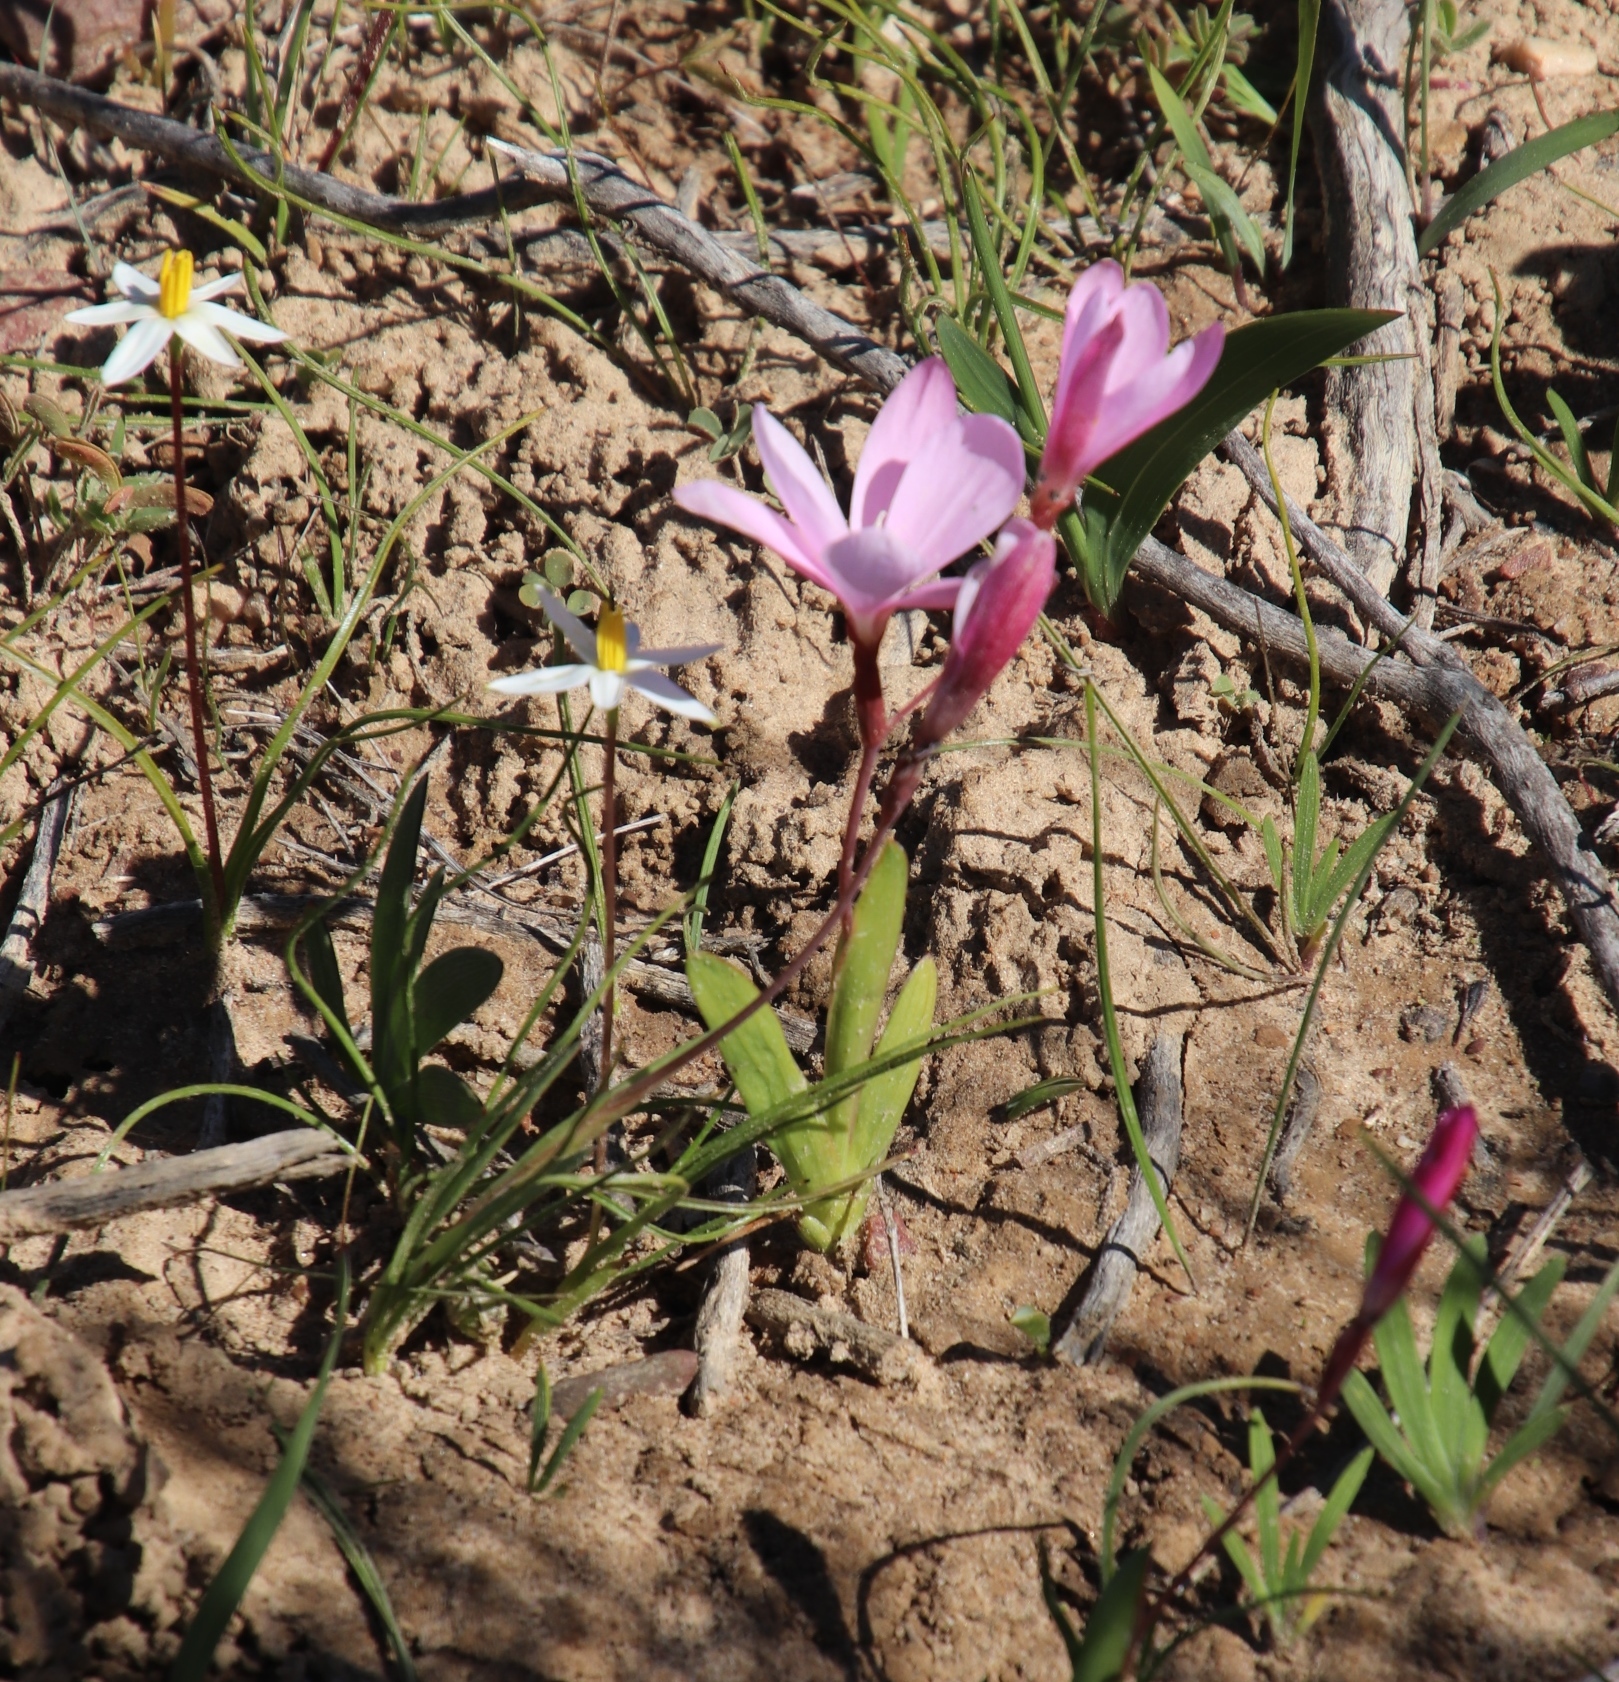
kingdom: Plantae
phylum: Tracheophyta
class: Liliopsida
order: Asparagales
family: Iridaceae
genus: Hesperantha
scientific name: Hesperantha pauciflora
